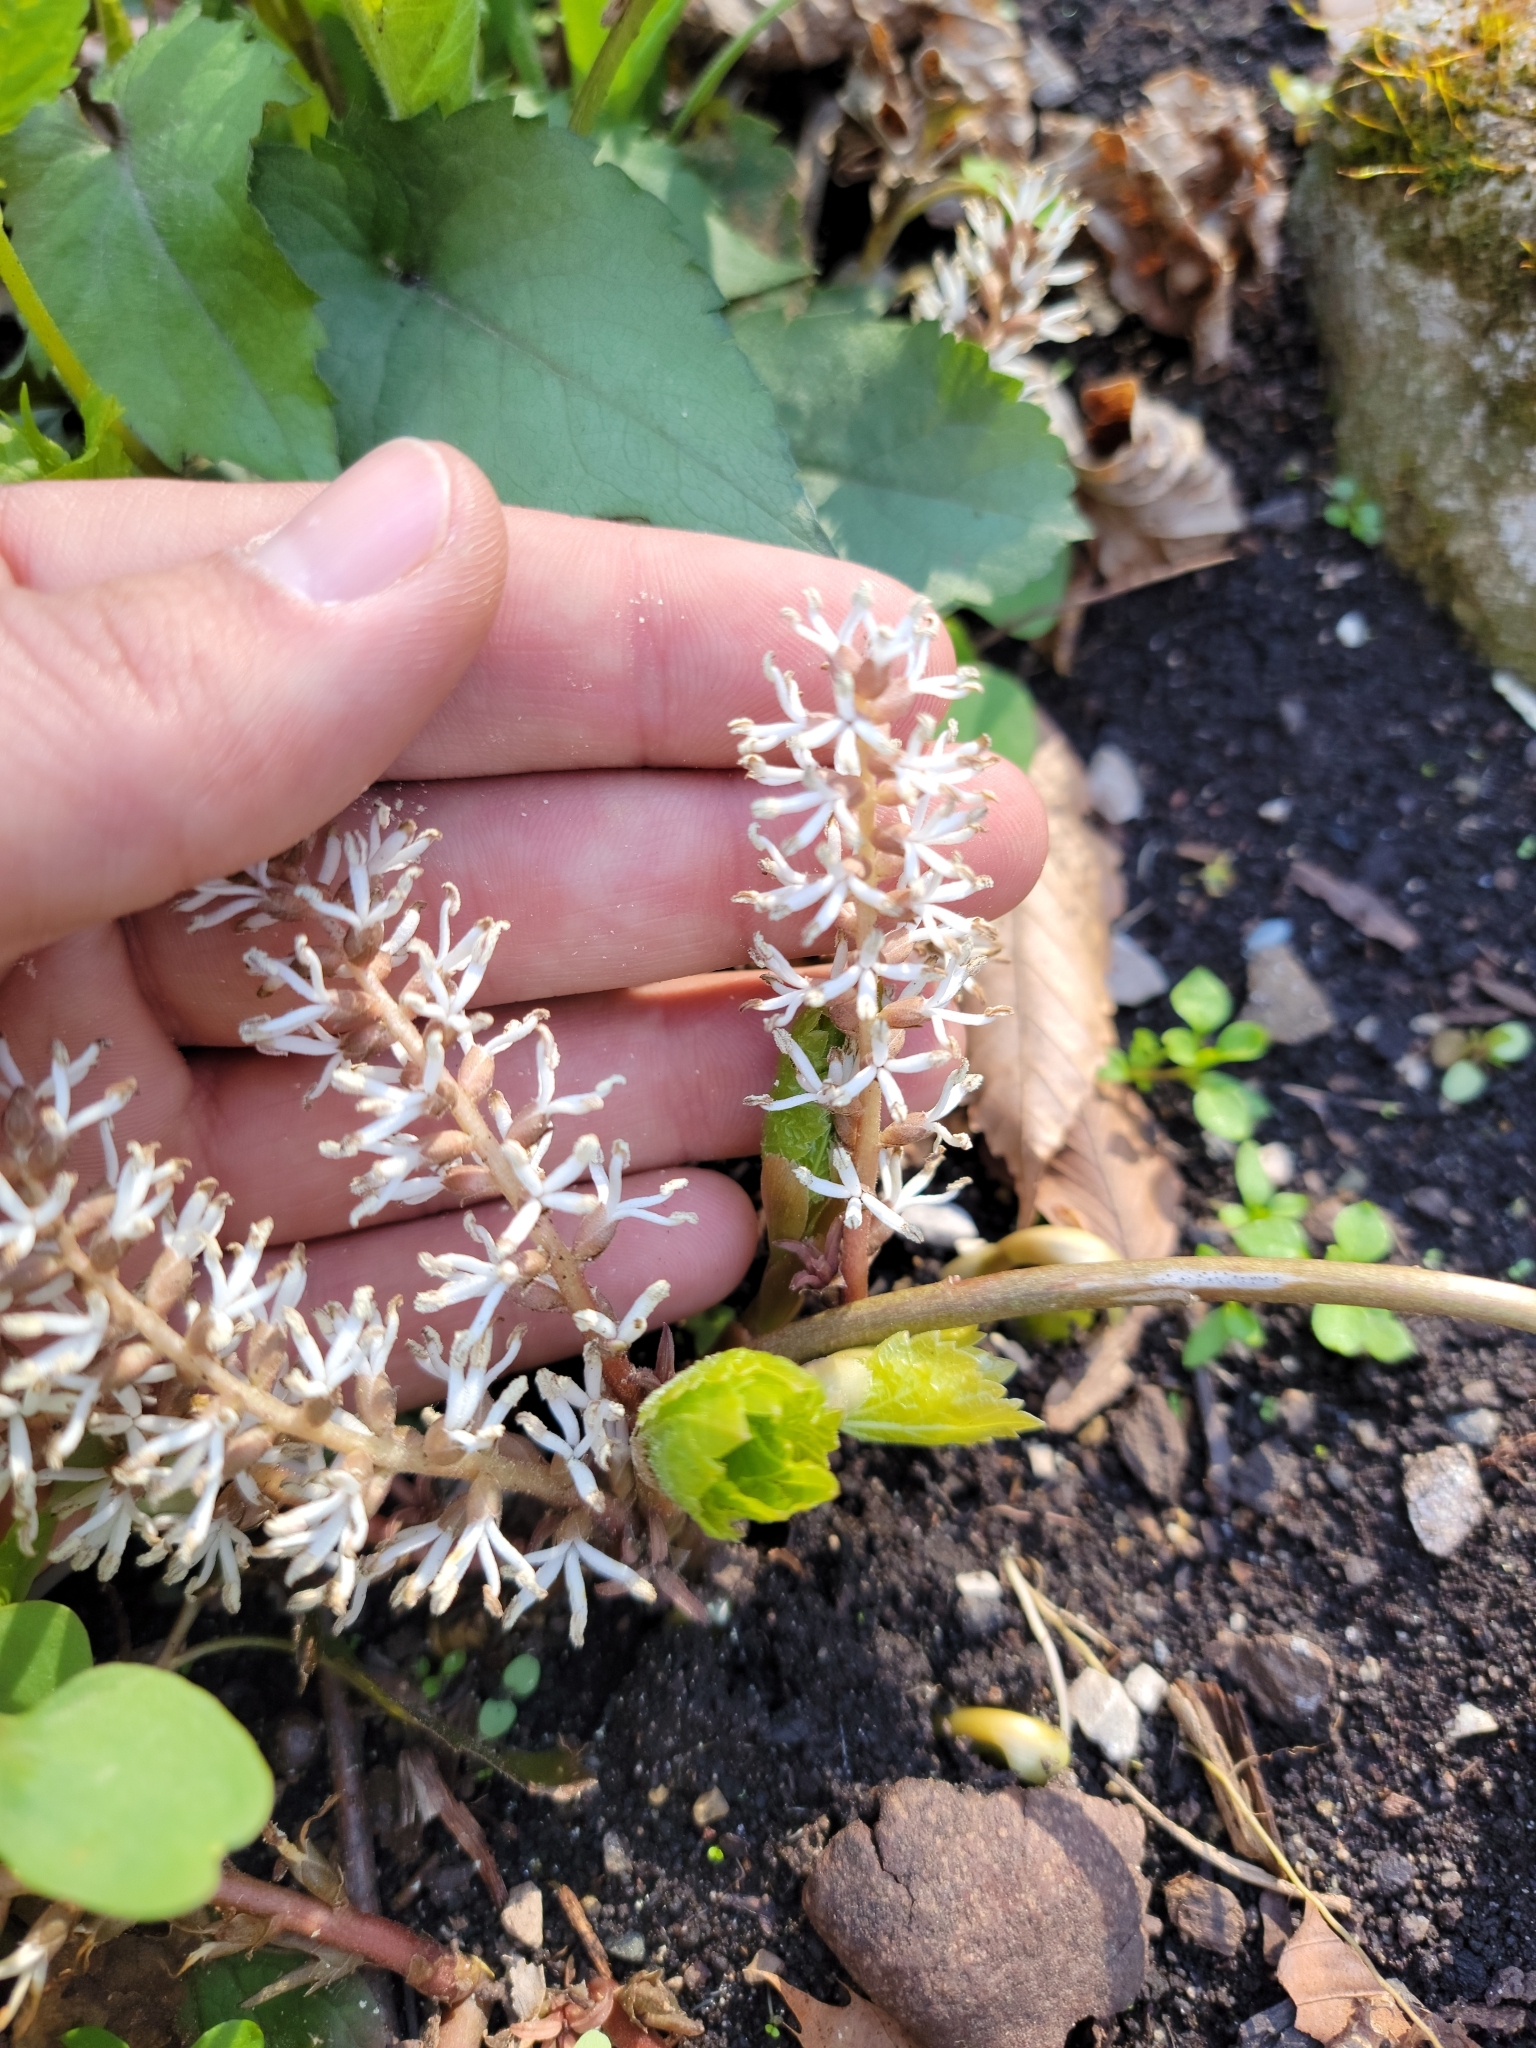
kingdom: Plantae
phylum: Tracheophyta
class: Magnoliopsida
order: Buxales
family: Buxaceae
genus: Pachysandra
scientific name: Pachysandra procumbens
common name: Mountain-spurge
